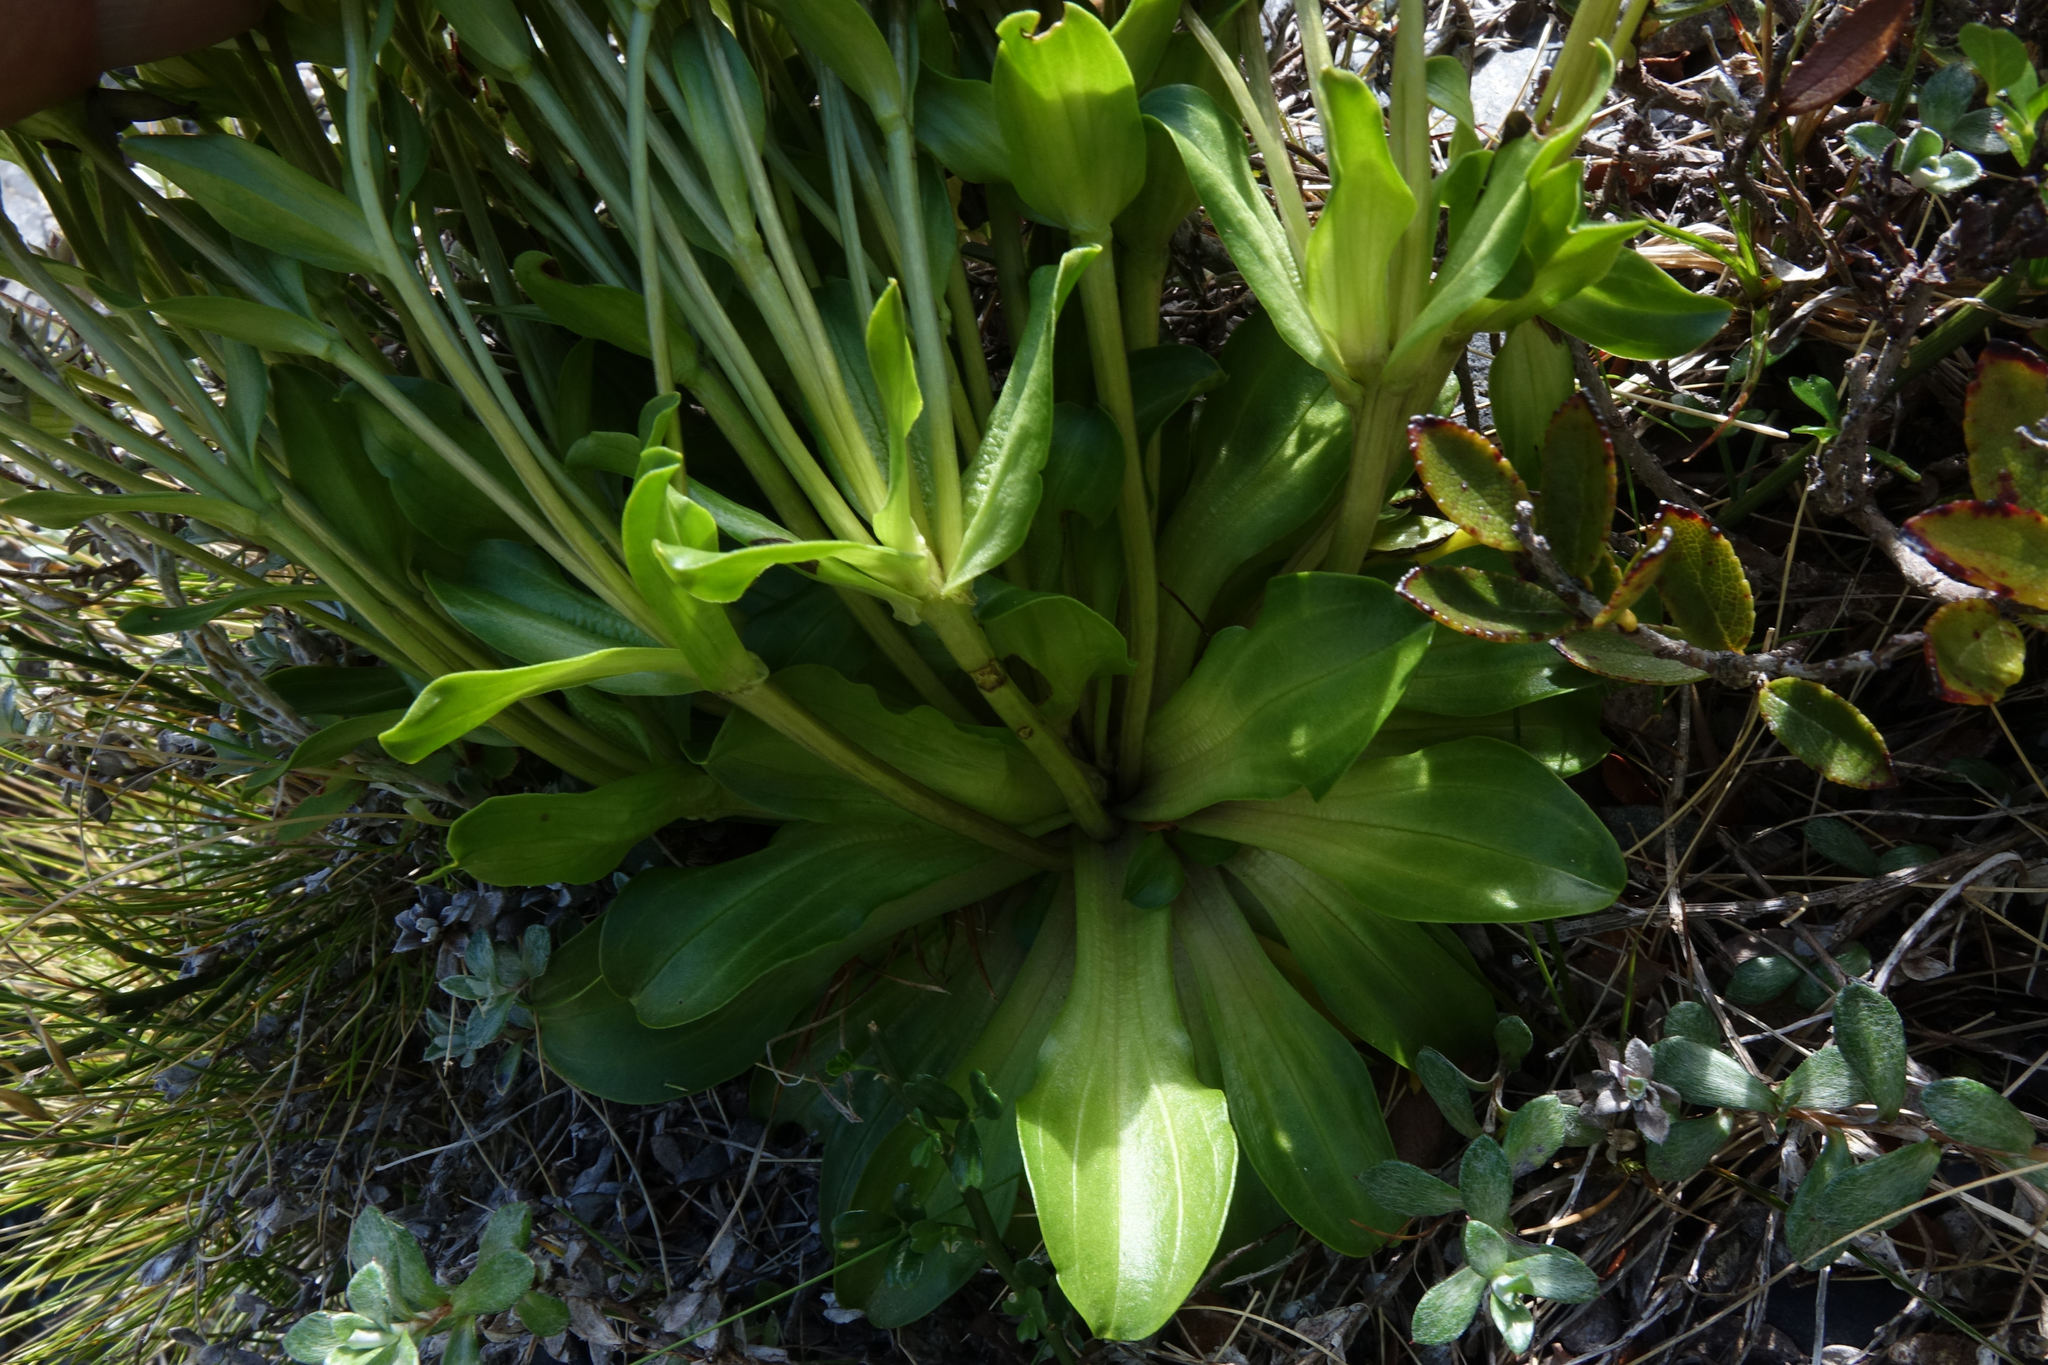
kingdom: Plantae
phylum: Tracheophyta
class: Magnoliopsida
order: Gentianales
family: Gentianaceae
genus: Gentianella
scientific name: Gentianella divisa
